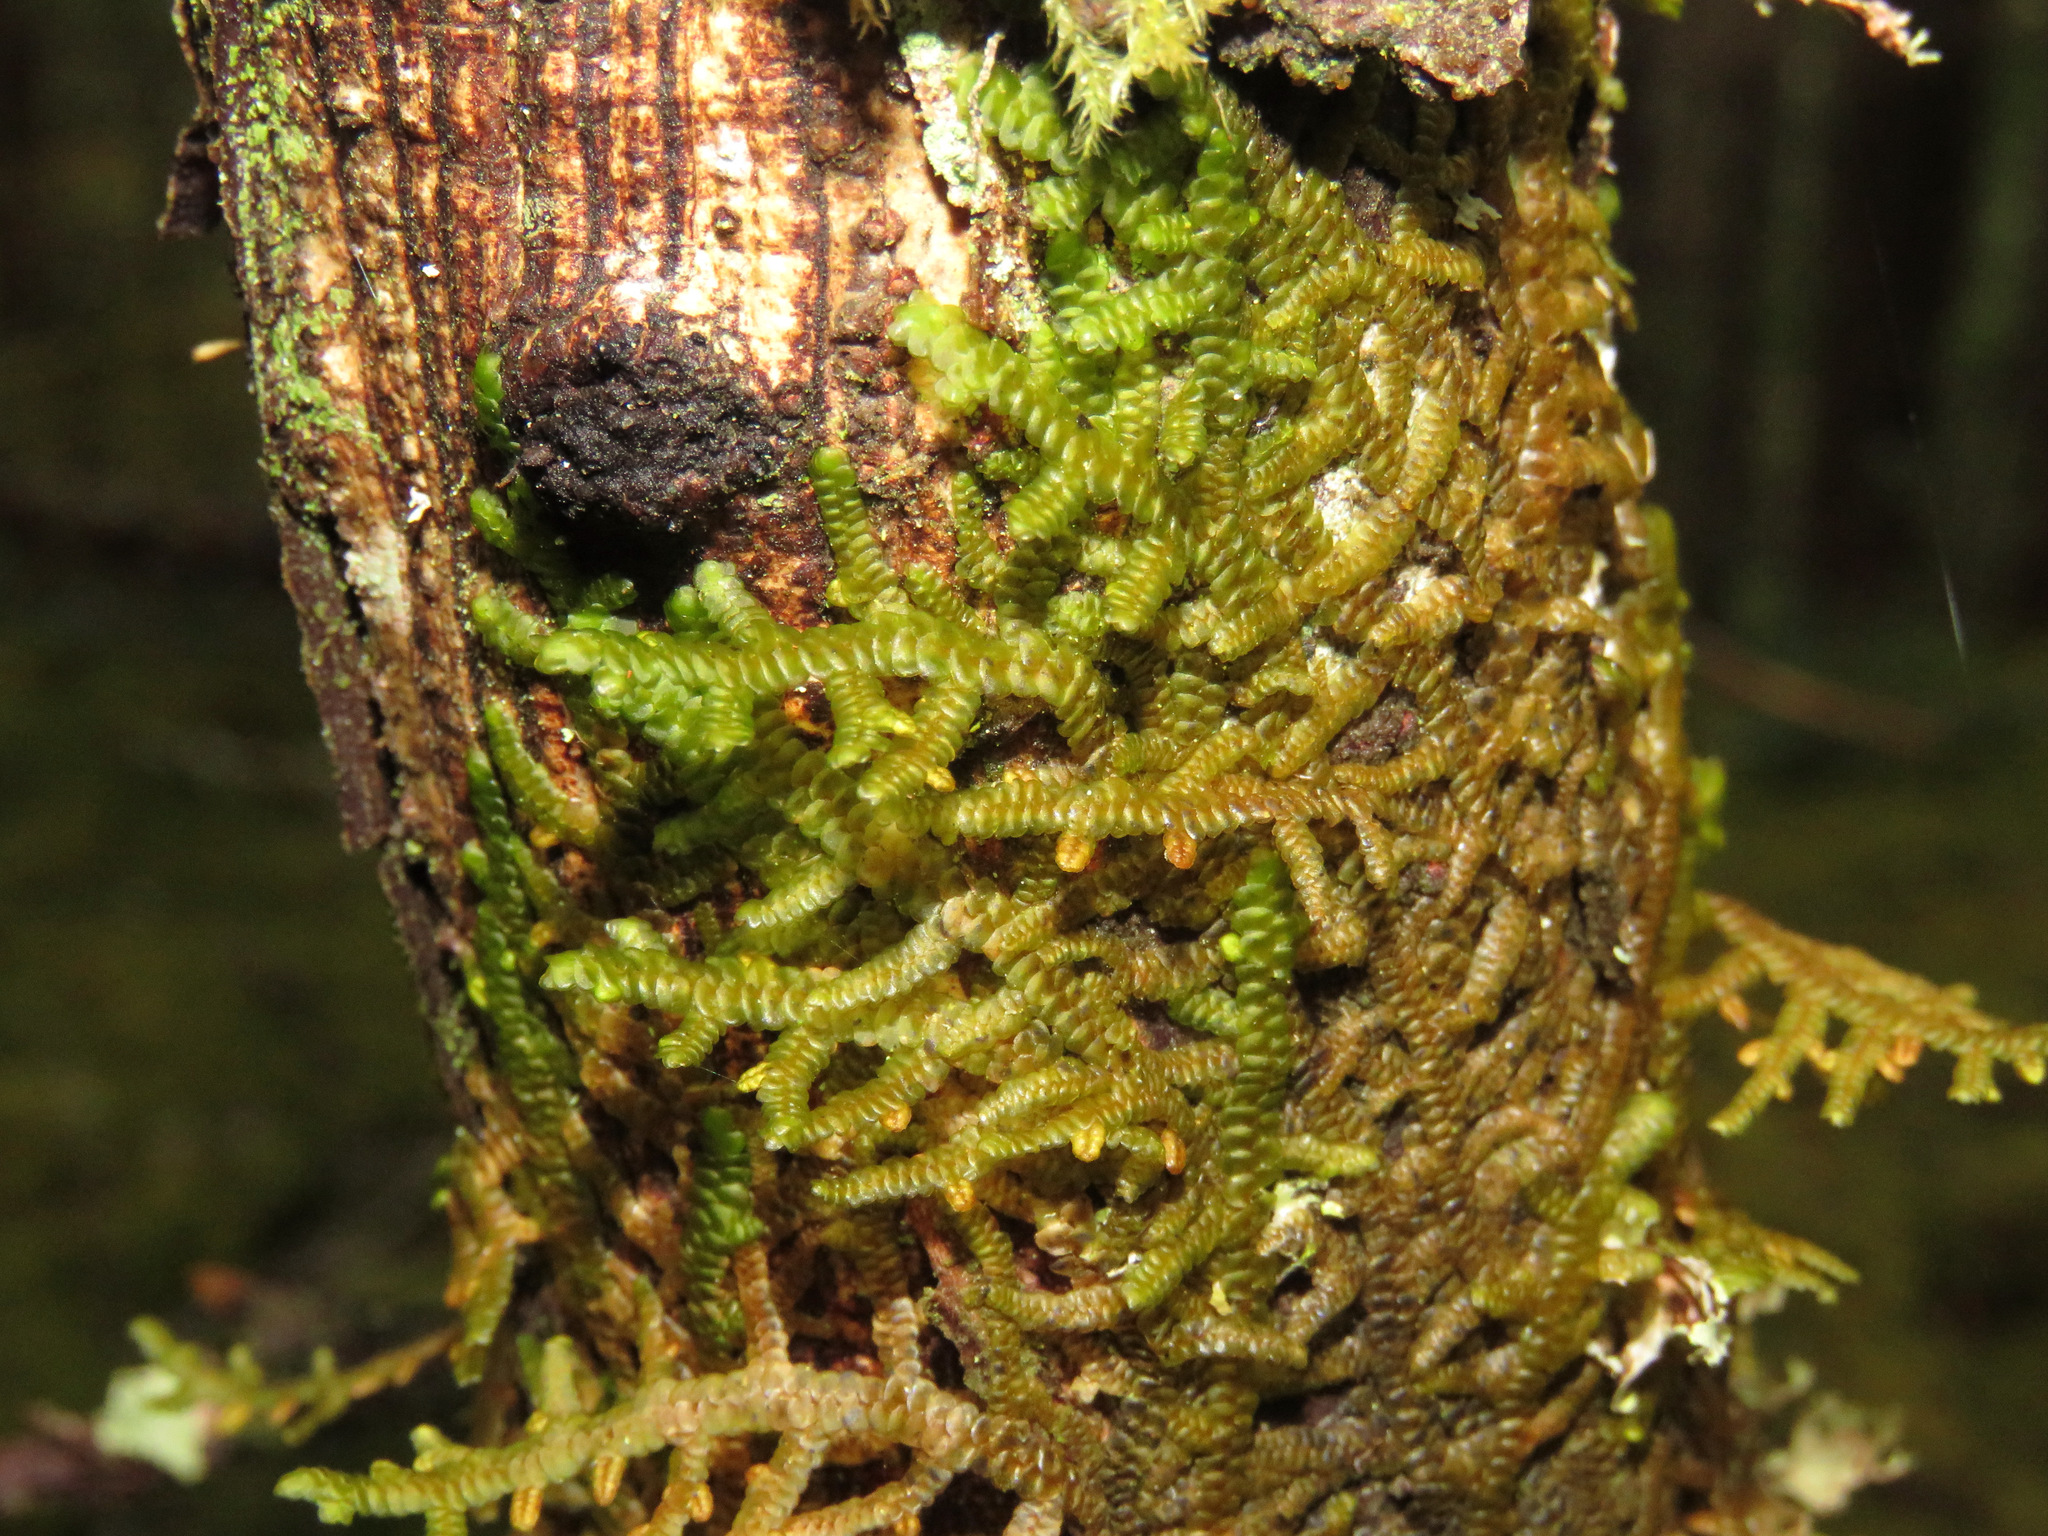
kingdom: Plantae
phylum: Marchantiophyta
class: Jungermanniopsida
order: Porellales
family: Porellaceae
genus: Porella
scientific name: Porella navicularis
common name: Tree ruffle liverwort
